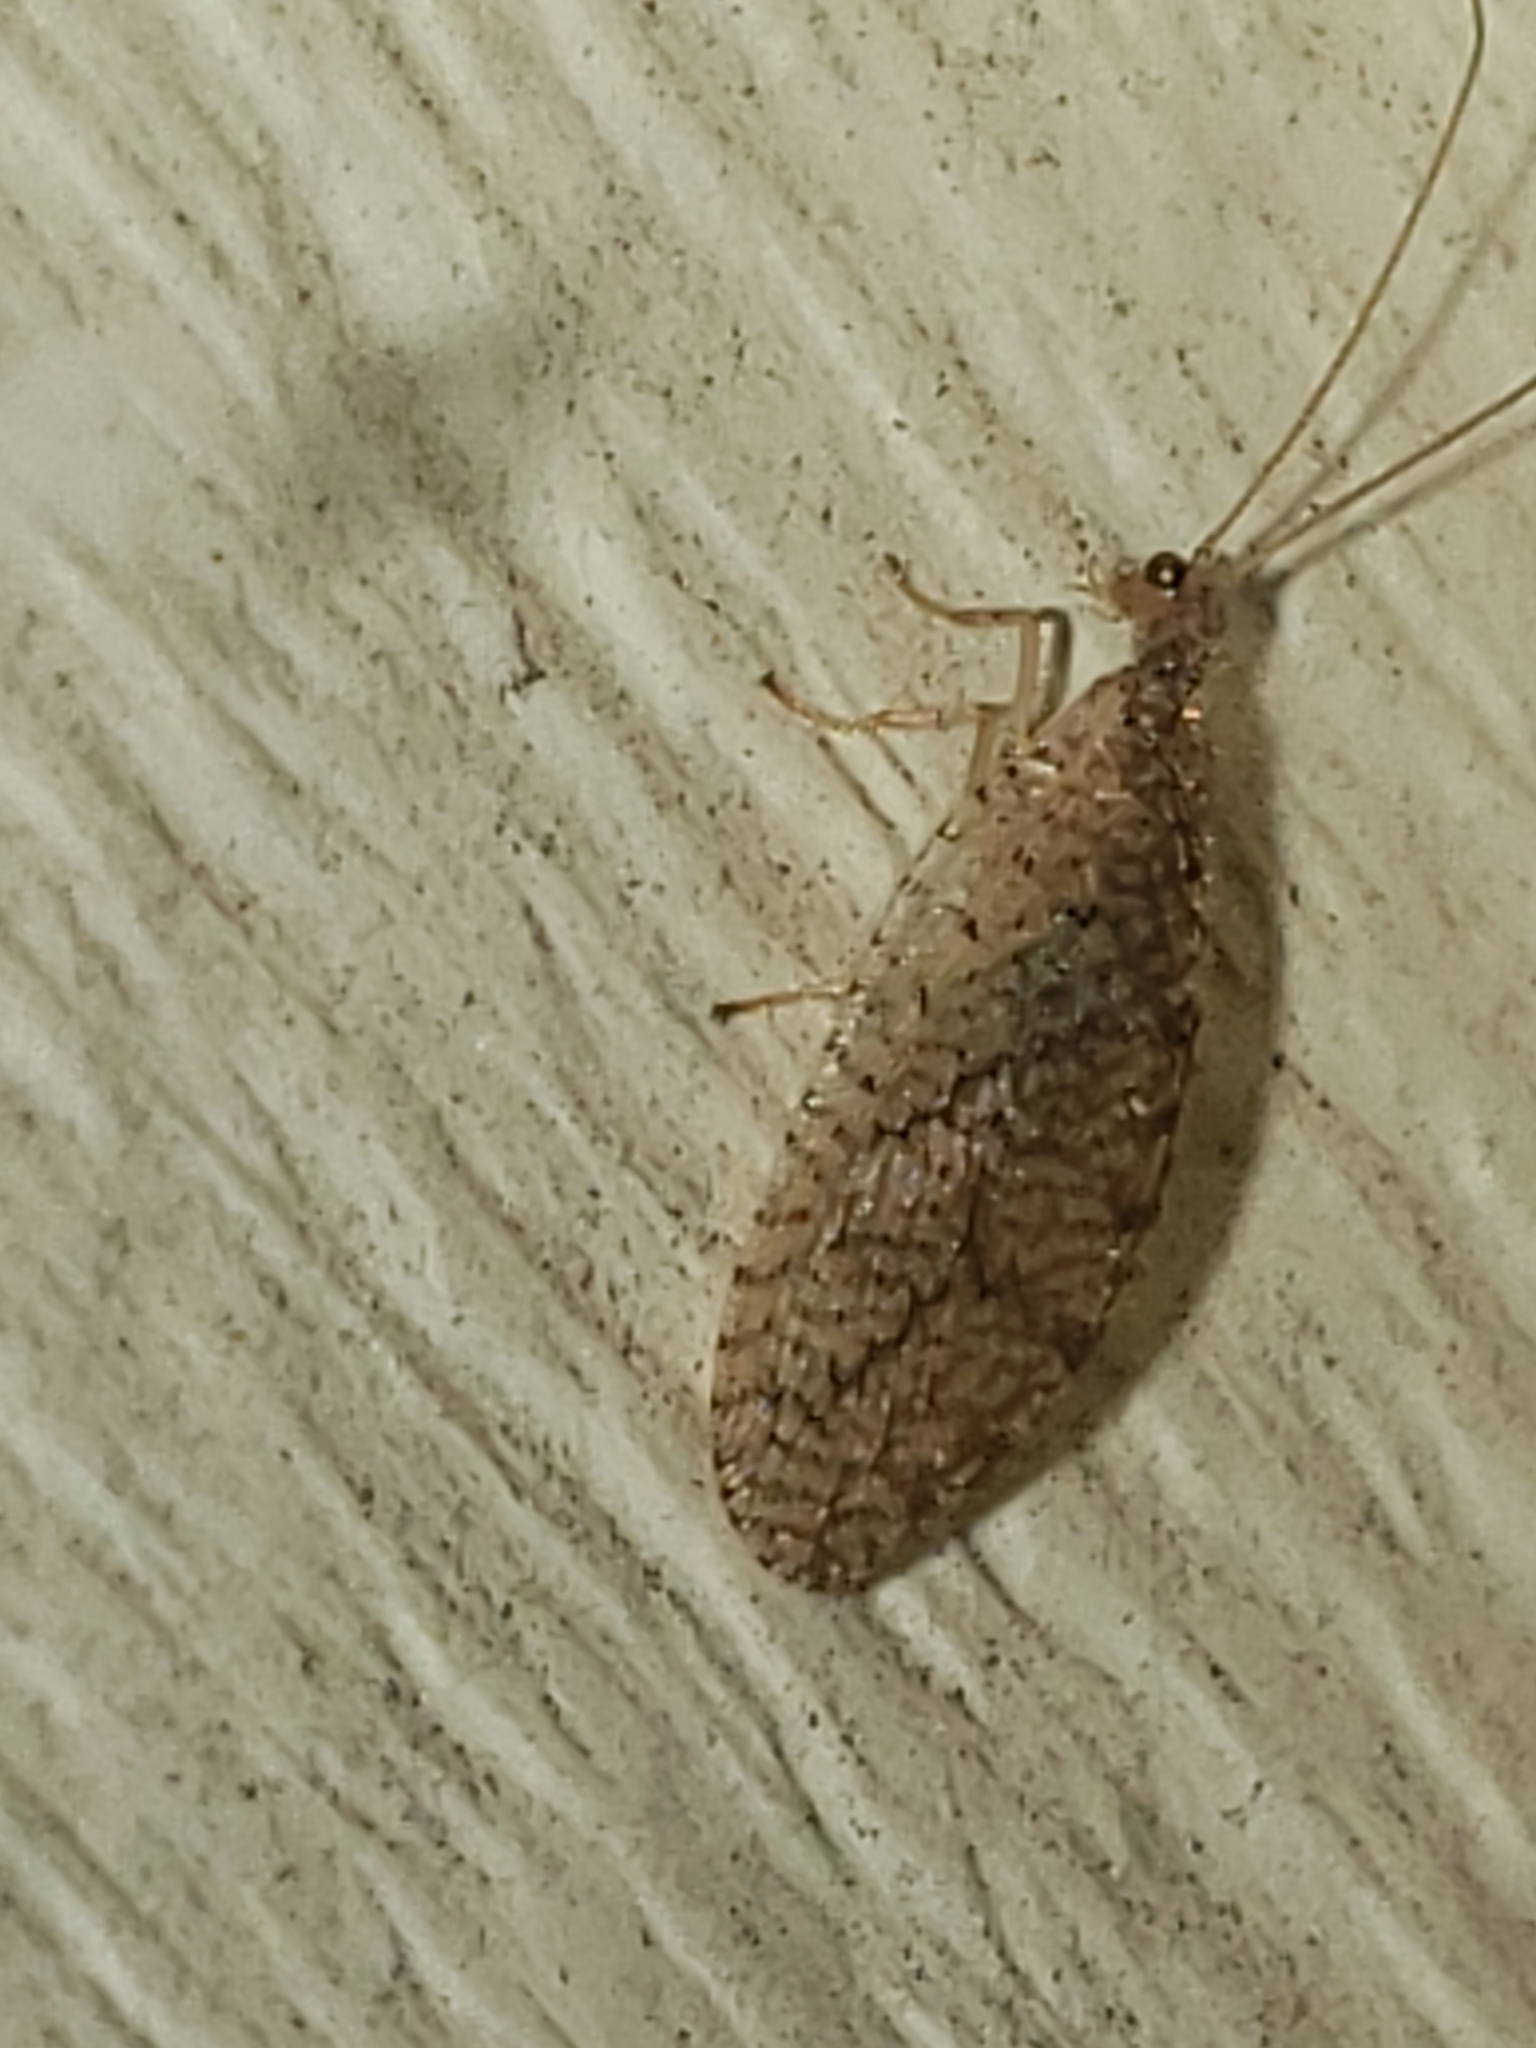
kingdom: Animalia
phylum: Arthropoda
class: Insecta
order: Neuroptera
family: Hemerobiidae
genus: Micromus
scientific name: Micromus posticus
